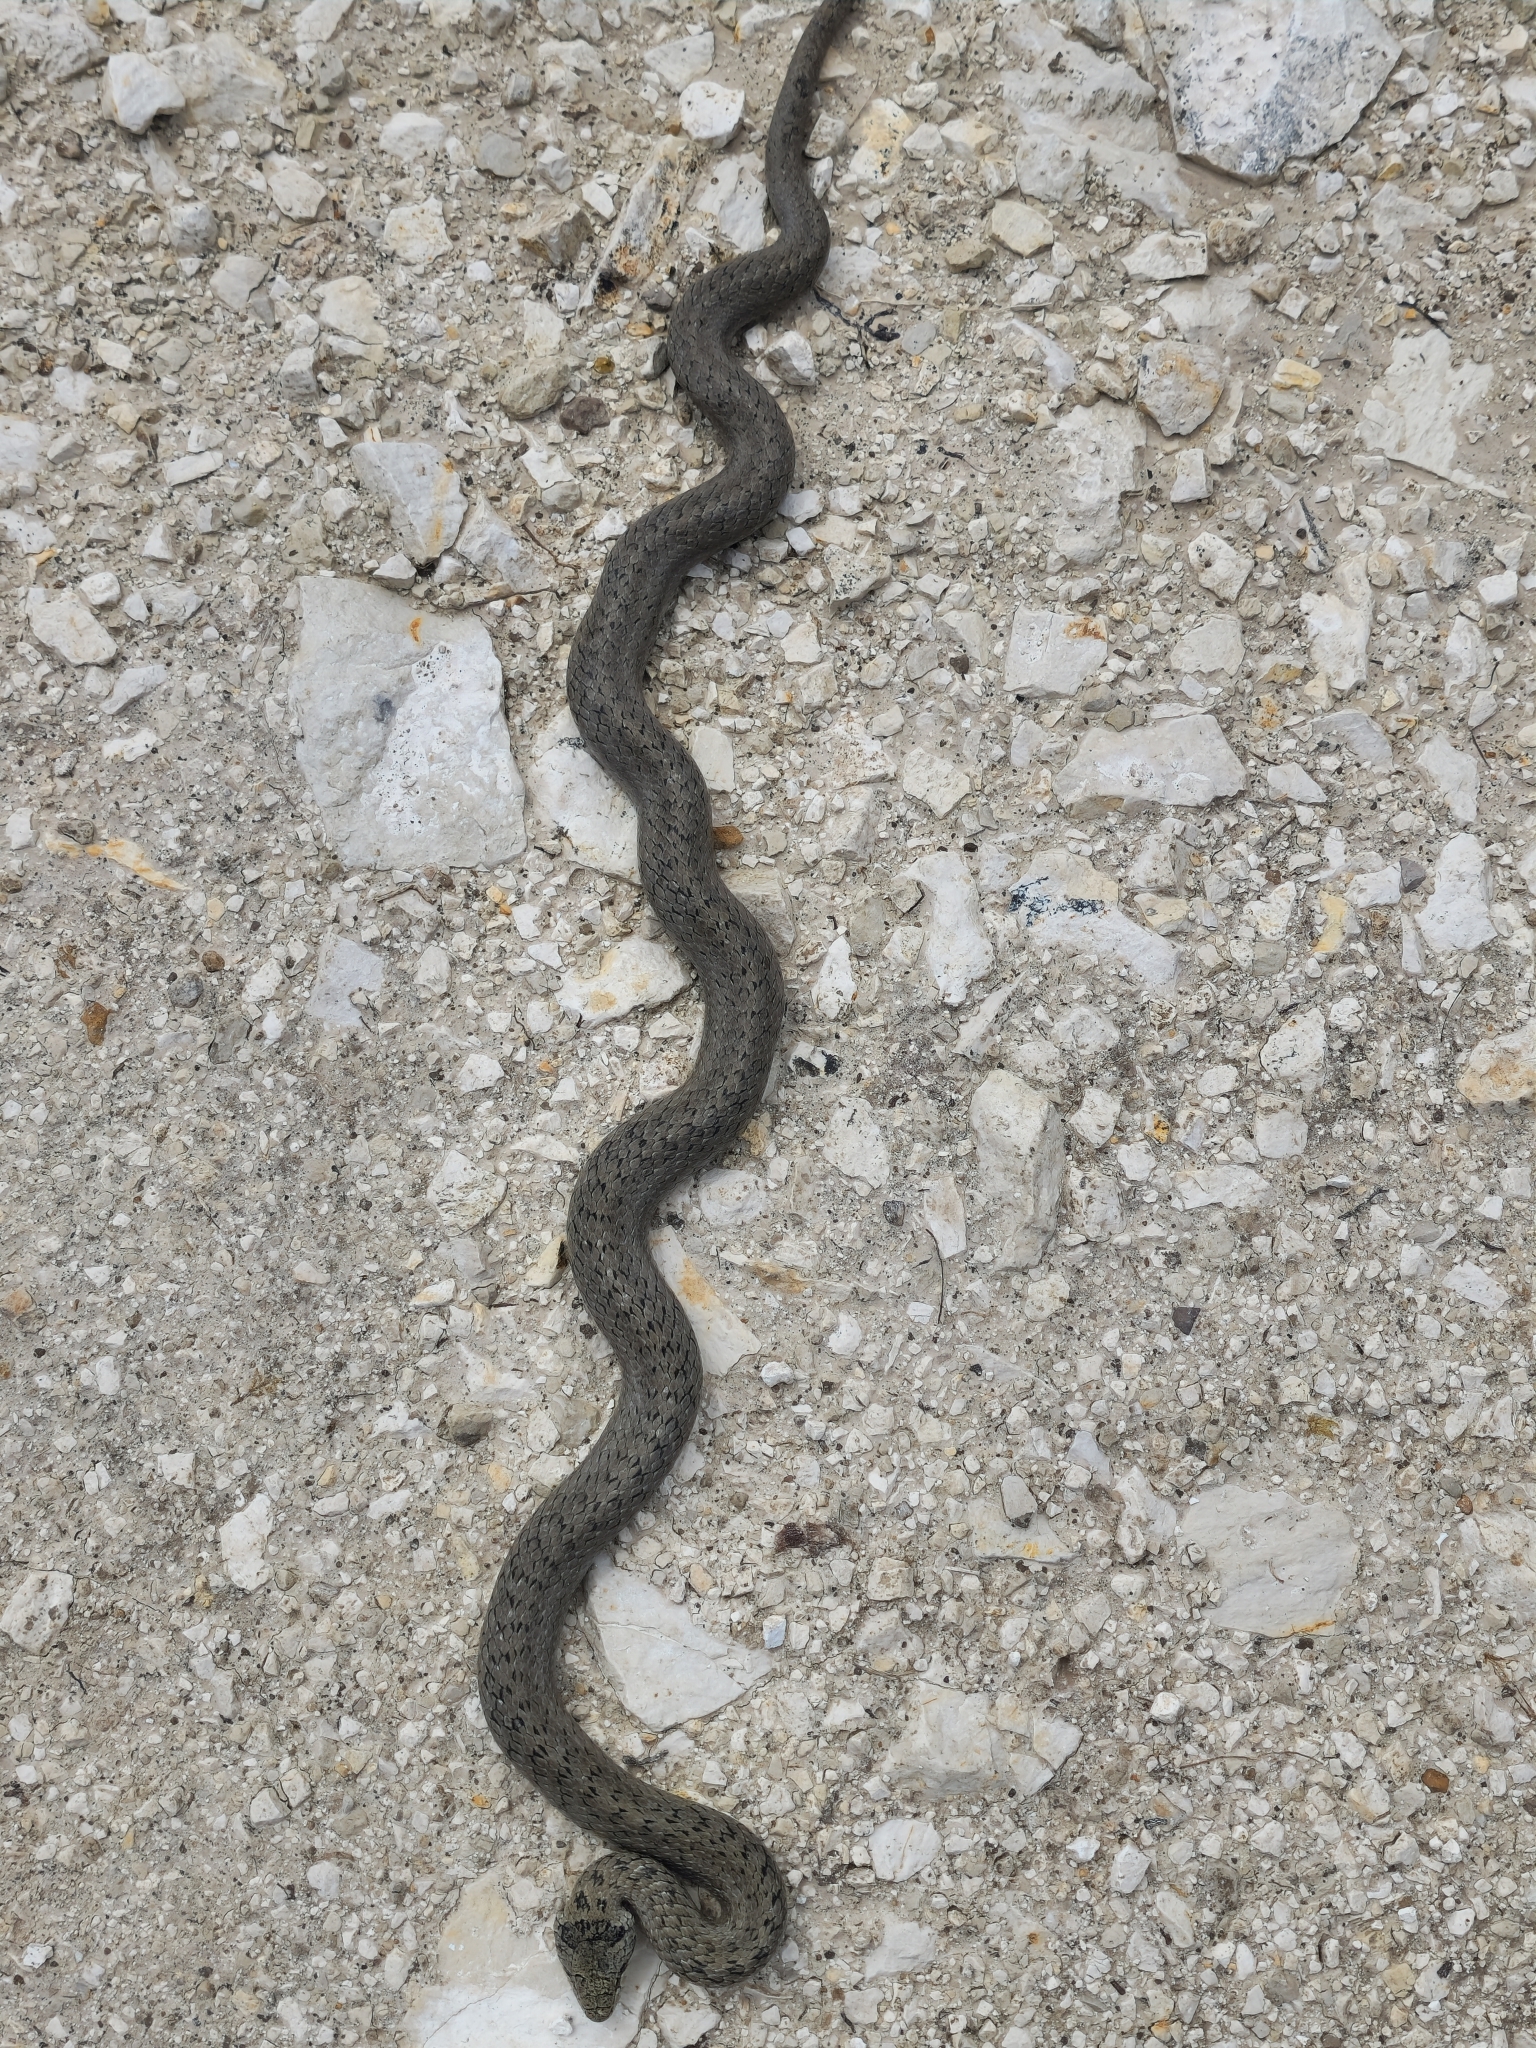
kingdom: Animalia
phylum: Chordata
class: Squamata
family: Colubridae
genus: Coronella
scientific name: Coronella austriaca
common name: Smooth snake
